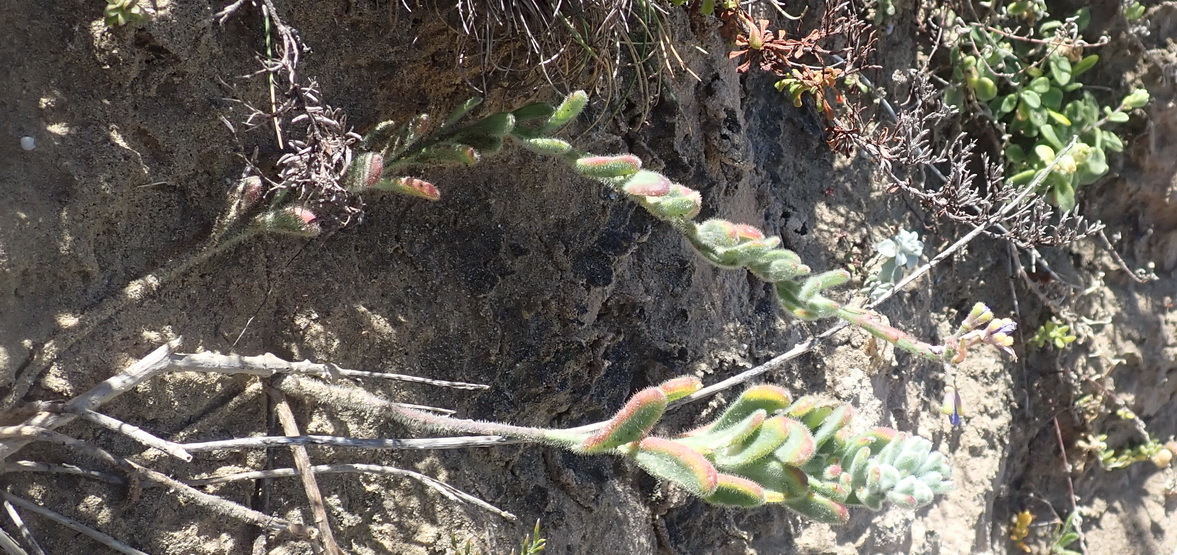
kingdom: Plantae
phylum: Tracheophyta
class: Magnoliopsida
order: Brassicales
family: Brassicaceae
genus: Heliophila
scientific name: Heliophila linearis
